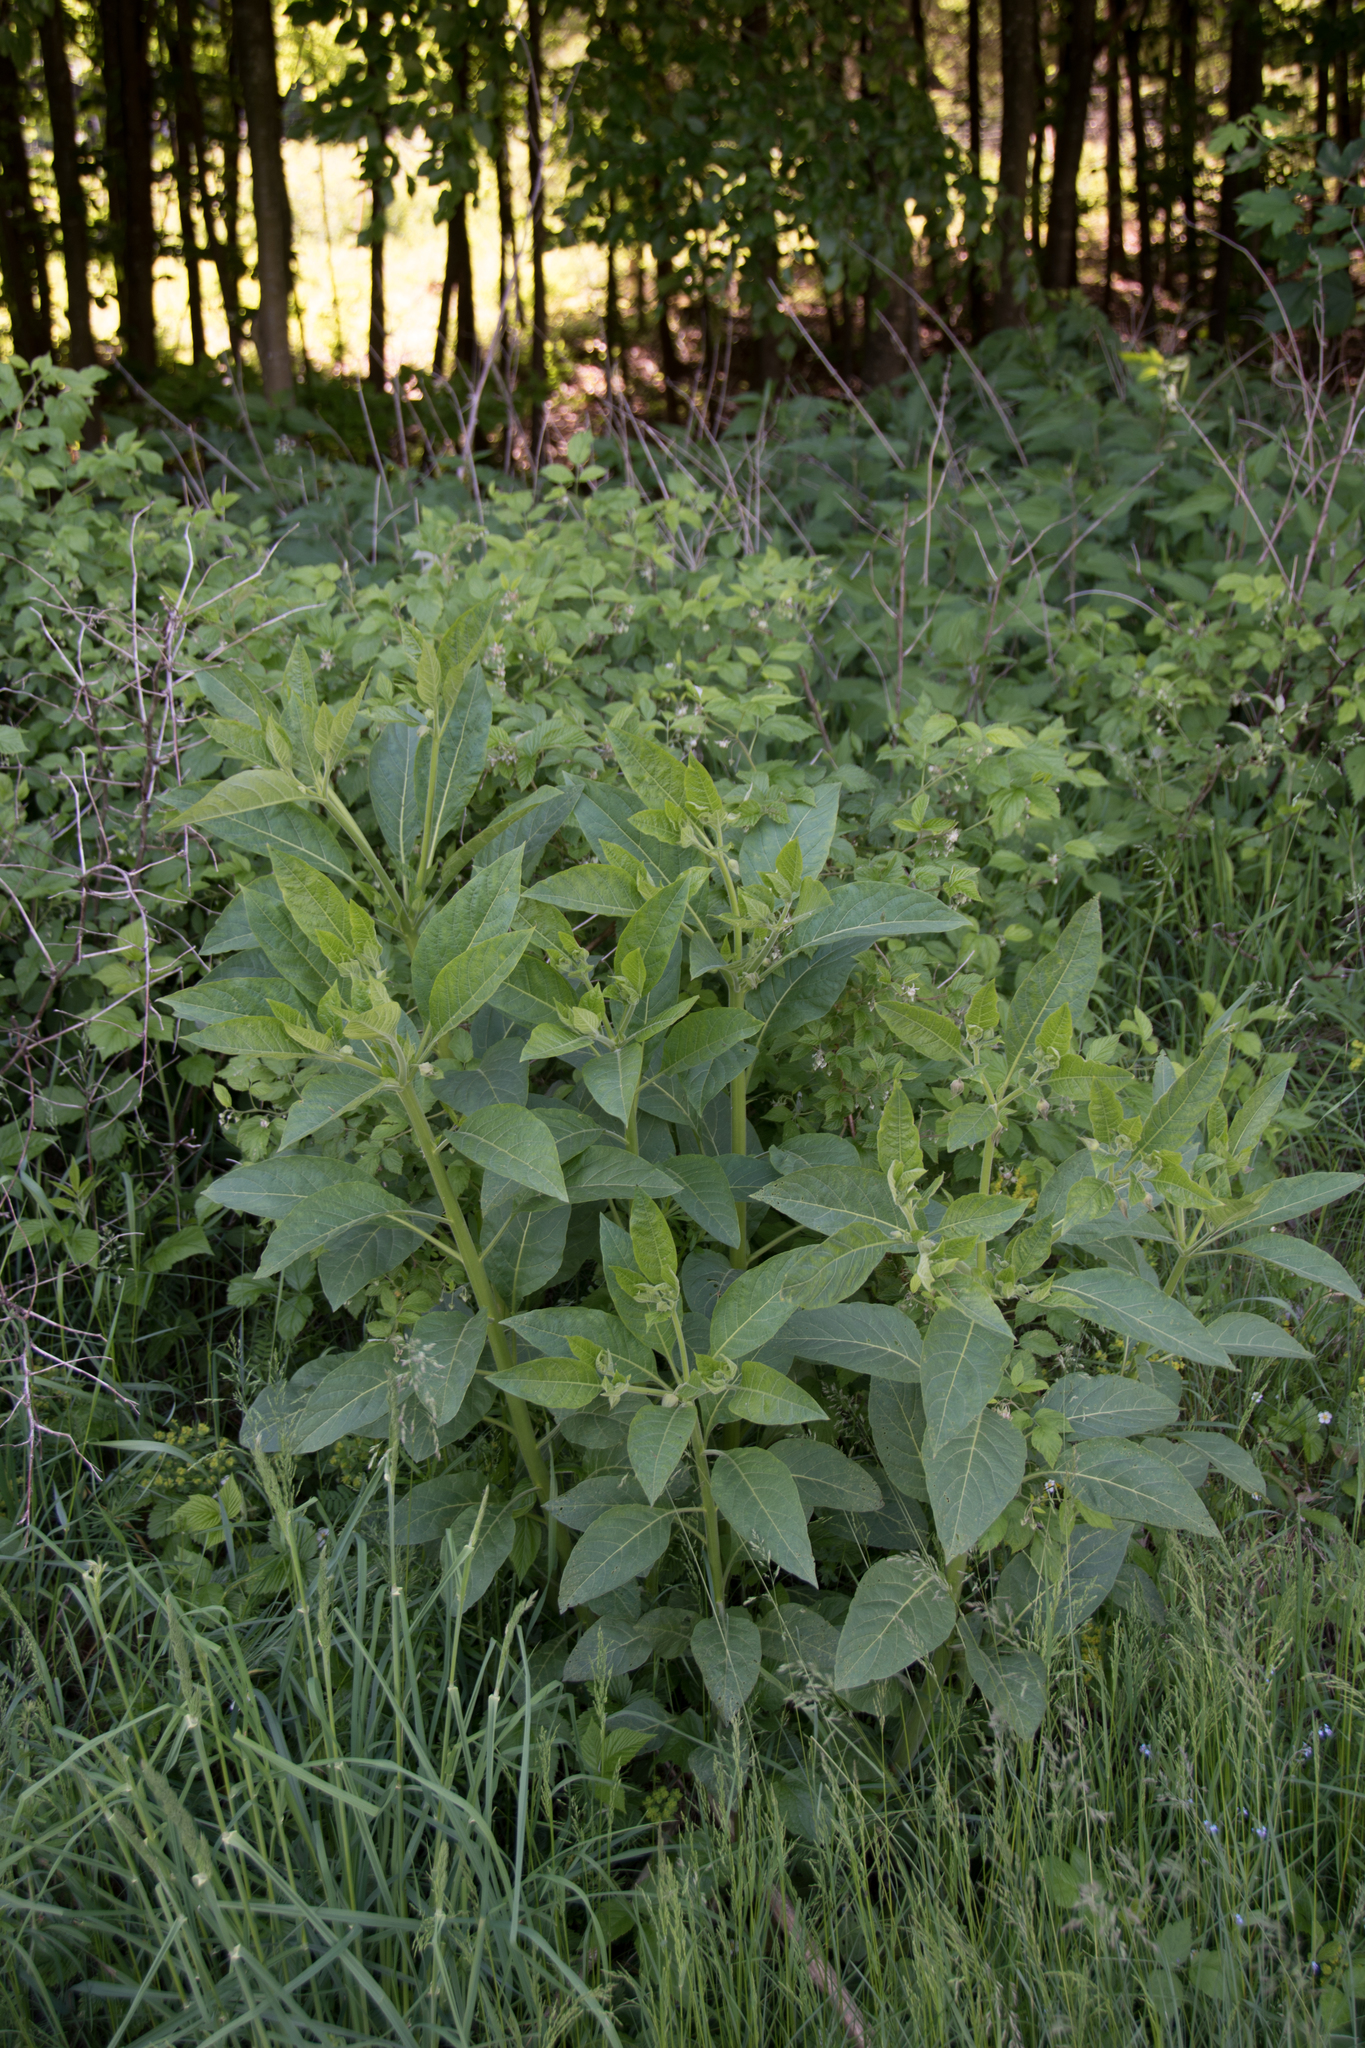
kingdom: Plantae
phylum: Tracheophyta
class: Magnoliopsida
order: Solanales
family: Solanaceae
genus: Atropa
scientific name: Atropa belladonna
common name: Deadly nightshade
